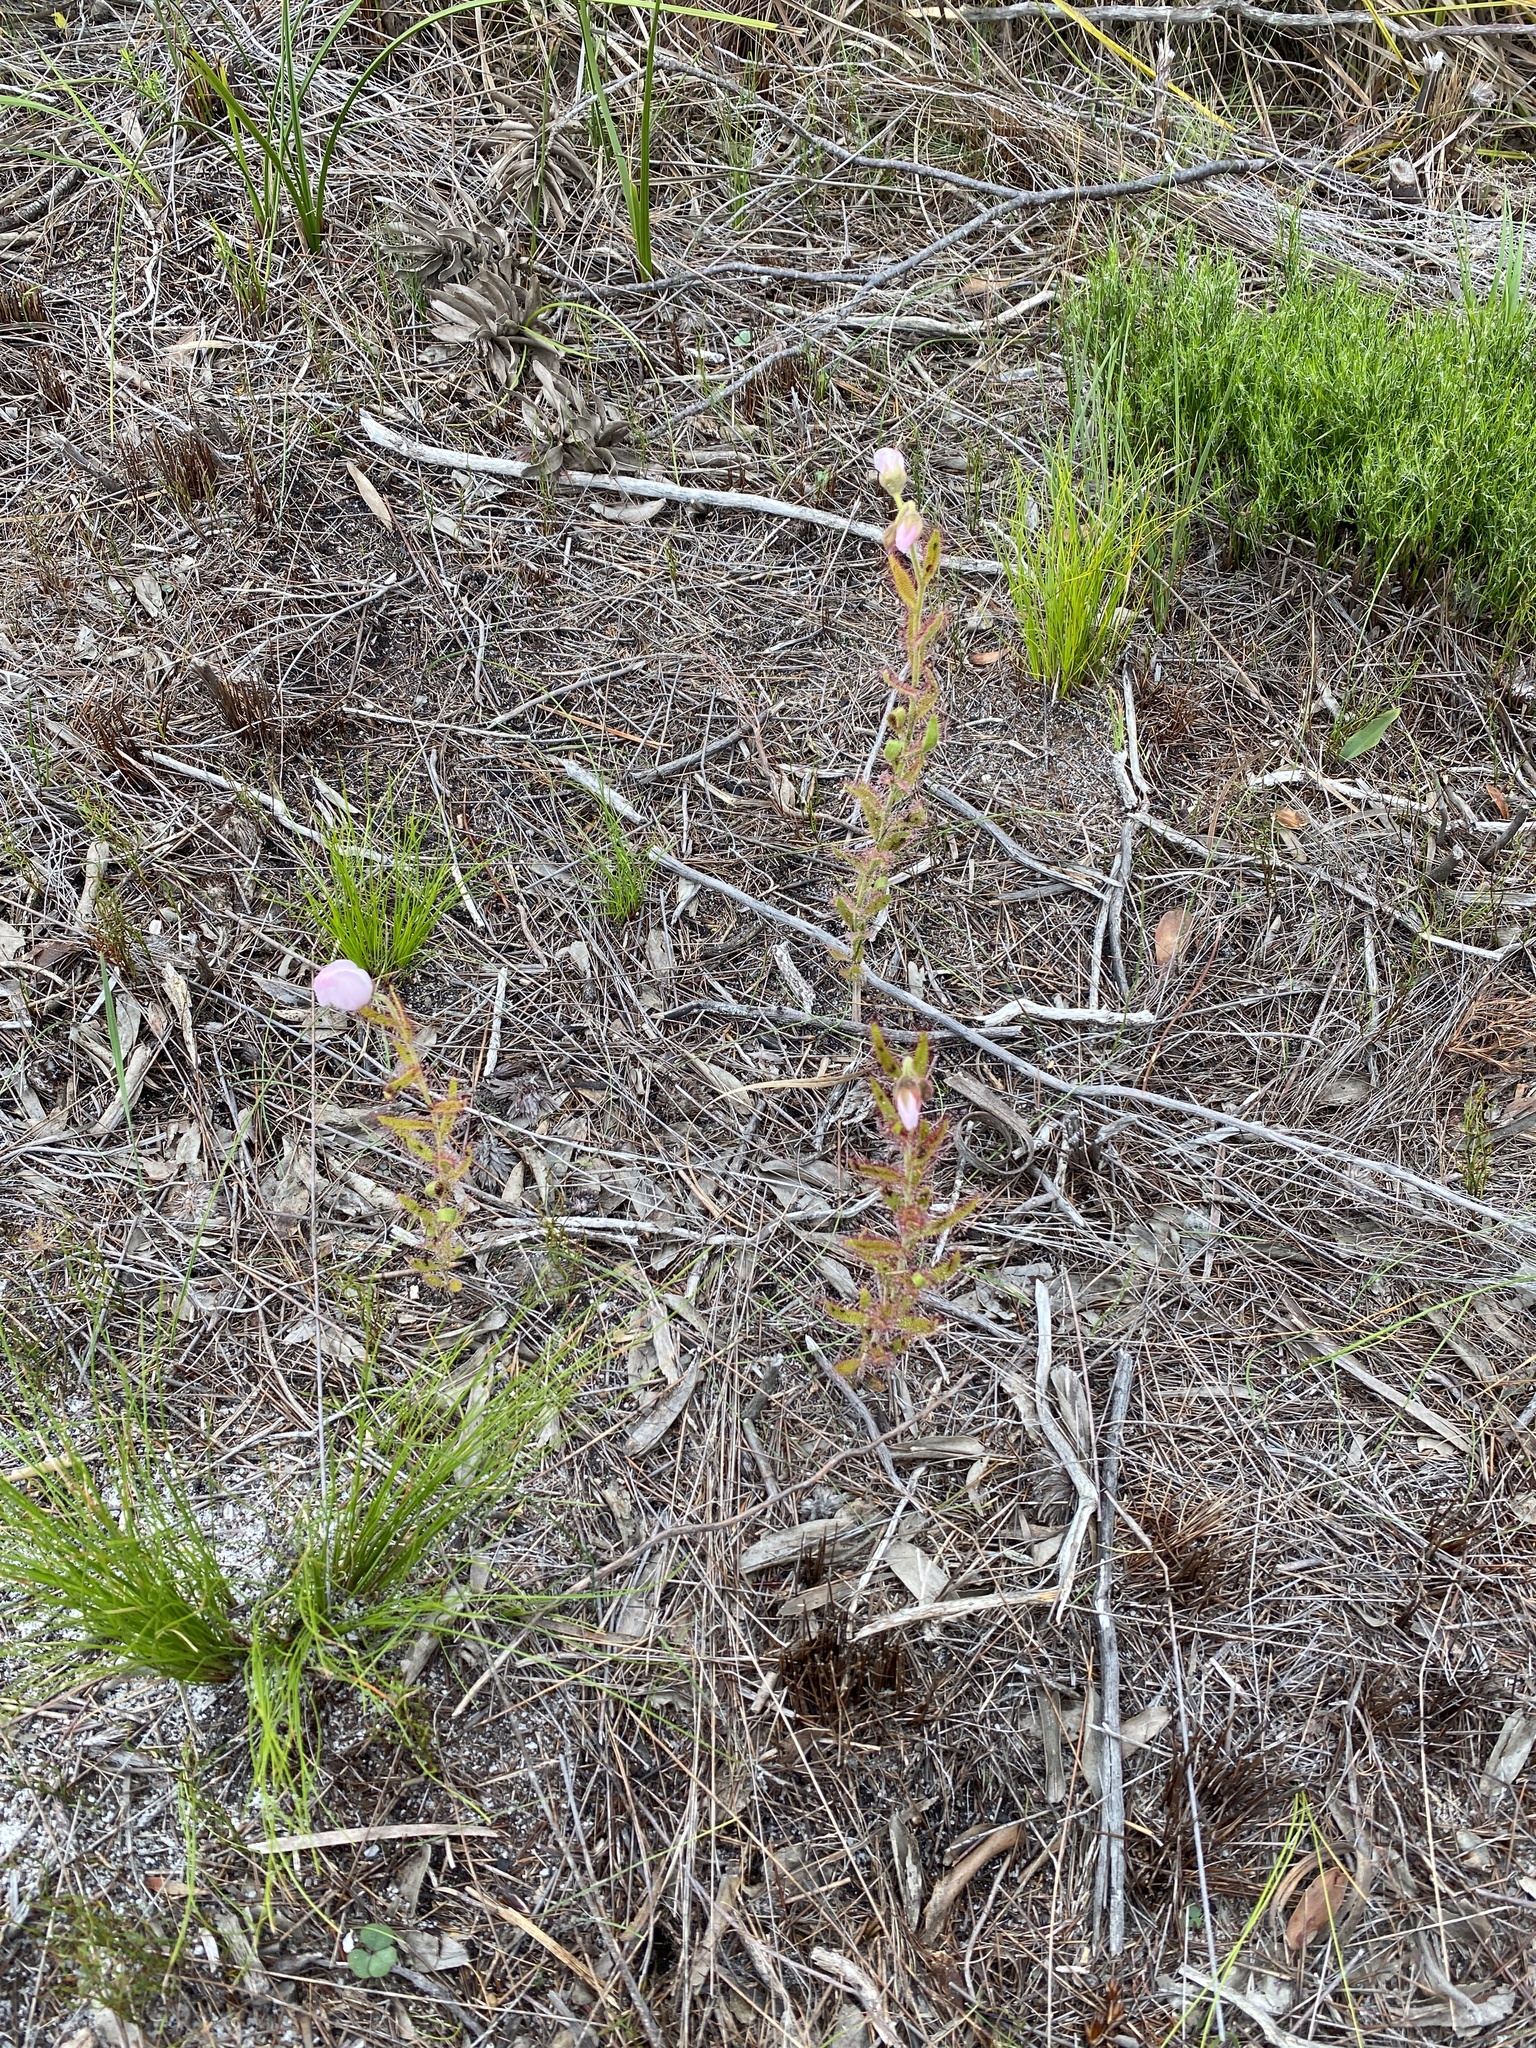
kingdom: Plantae
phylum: Tracheophyta
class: Magnoliopsida
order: Caryophyllales
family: Droseraceae
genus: Drosera
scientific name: Drosera cistiflora
